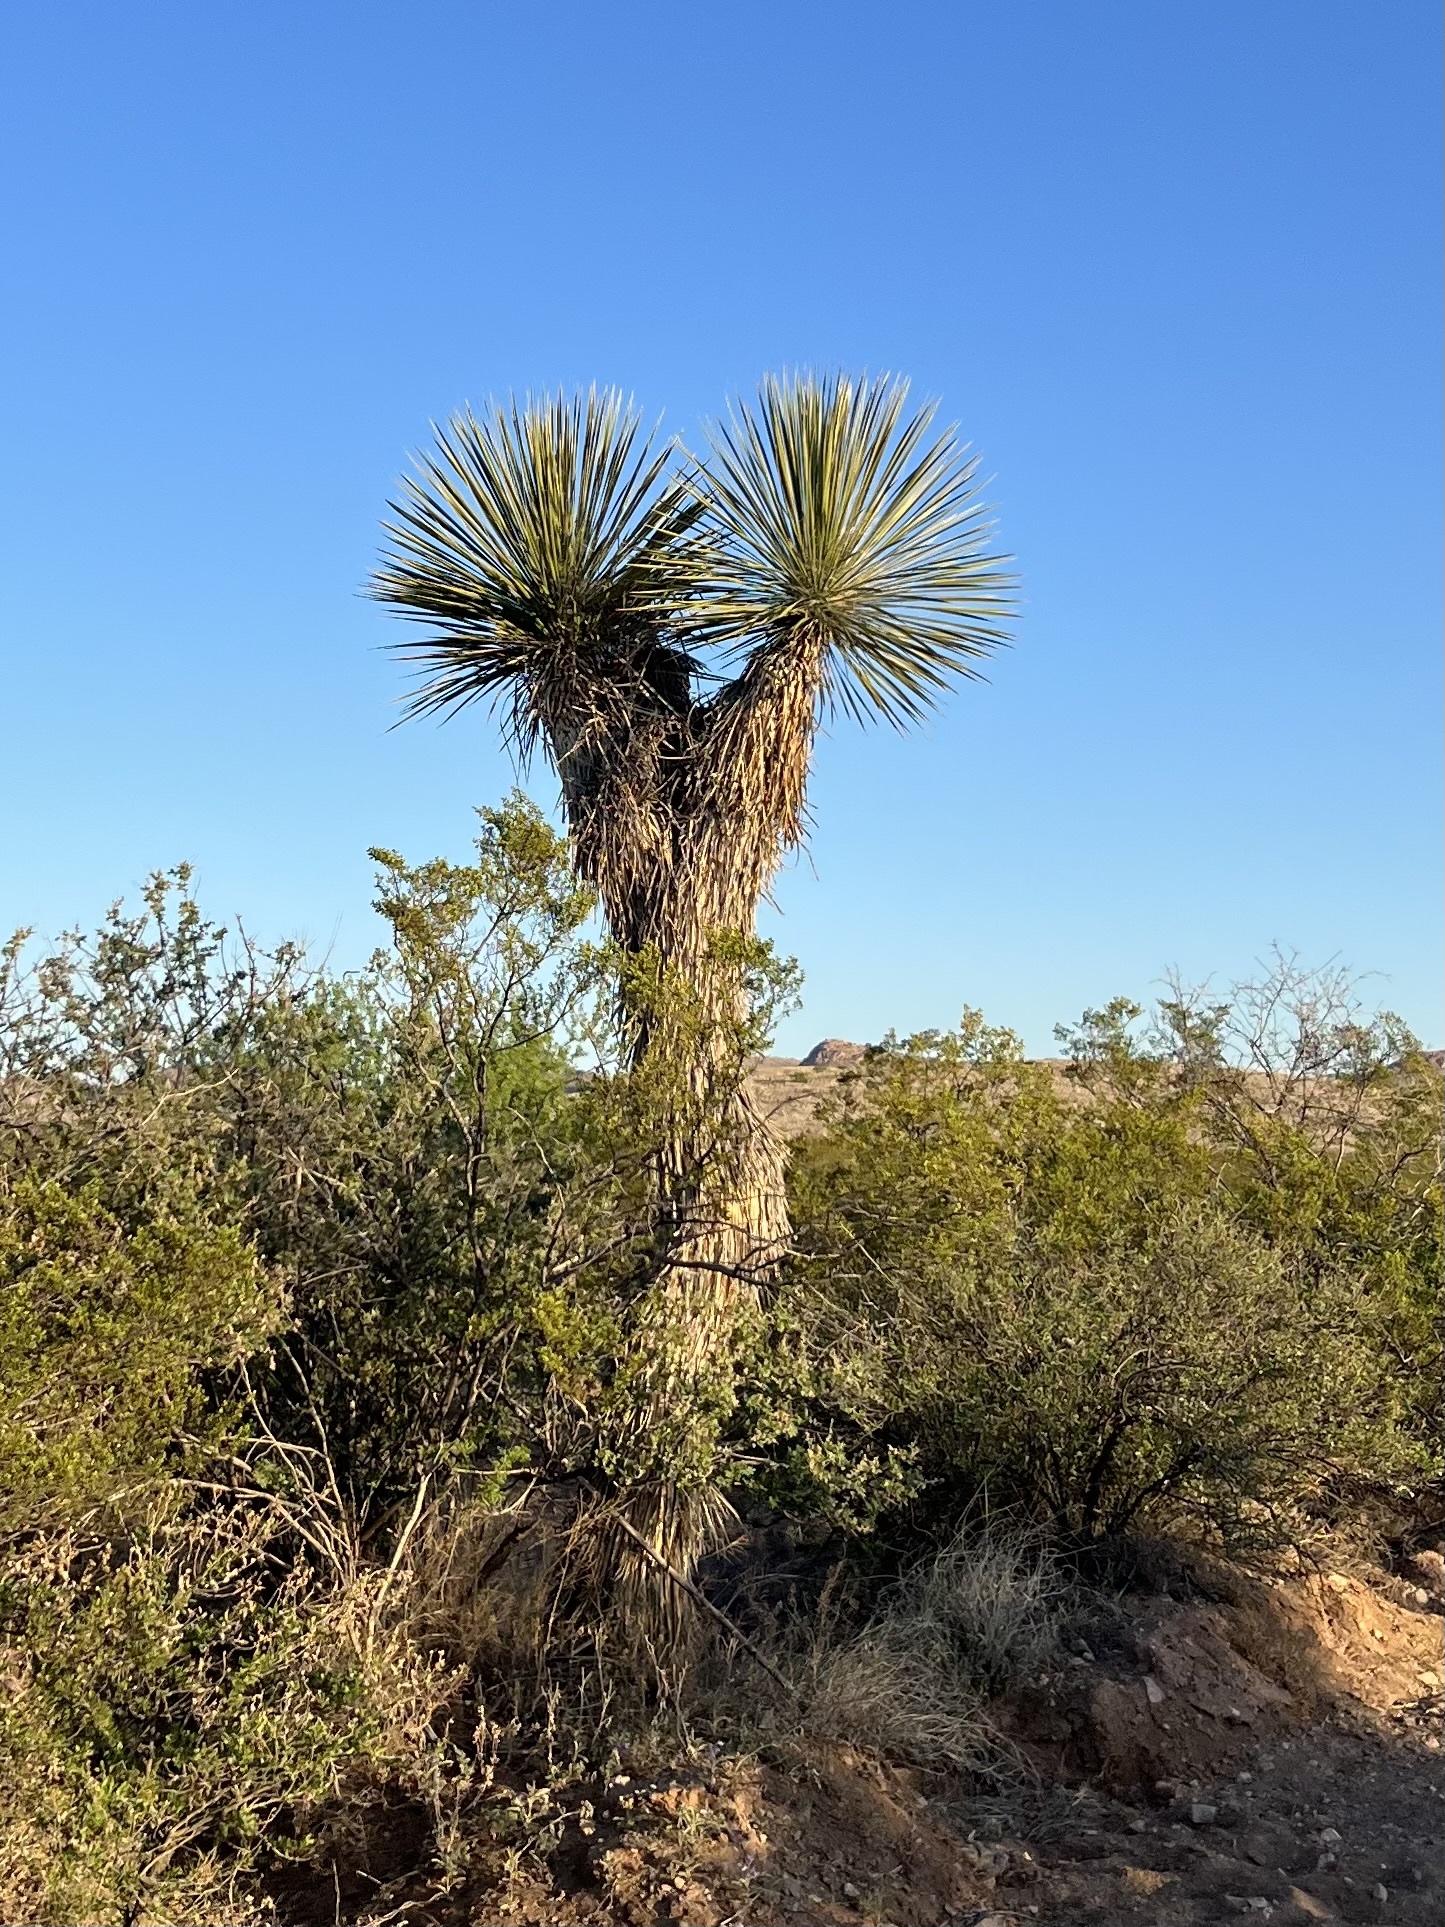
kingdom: Plantae
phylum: Tracheophyta
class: Liliopsida
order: Asparagales
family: Asparagaceae
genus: Yucca
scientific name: Yucca elata
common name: Palmella
